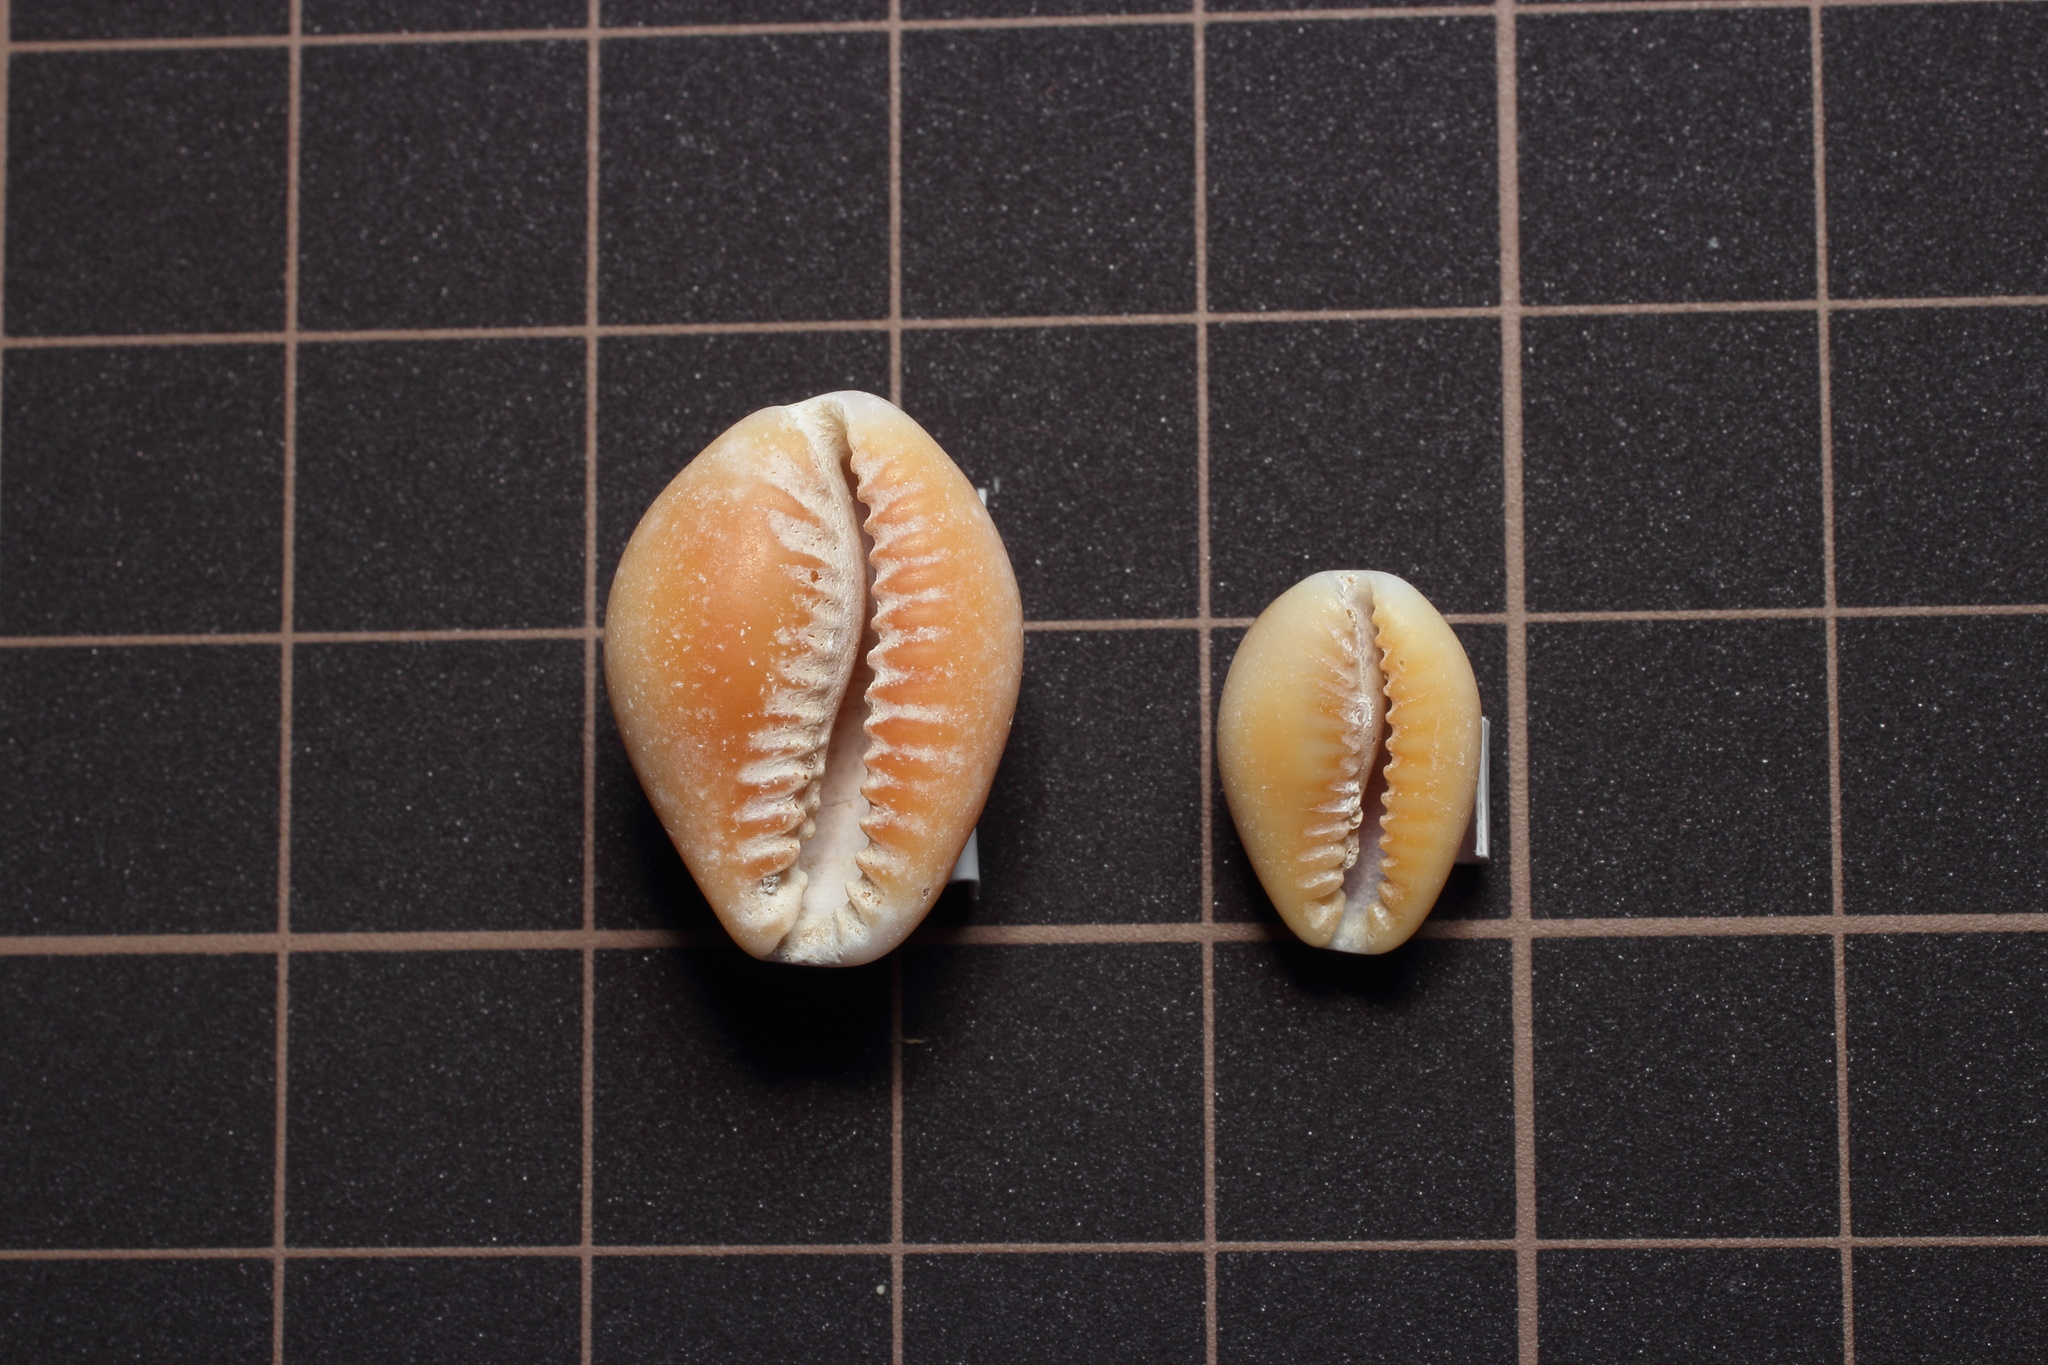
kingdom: Animalia
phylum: Mollusca
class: Gastropoda
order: Littorinimorpha
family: Cypraeidae
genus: Naria
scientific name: Naria helvola
